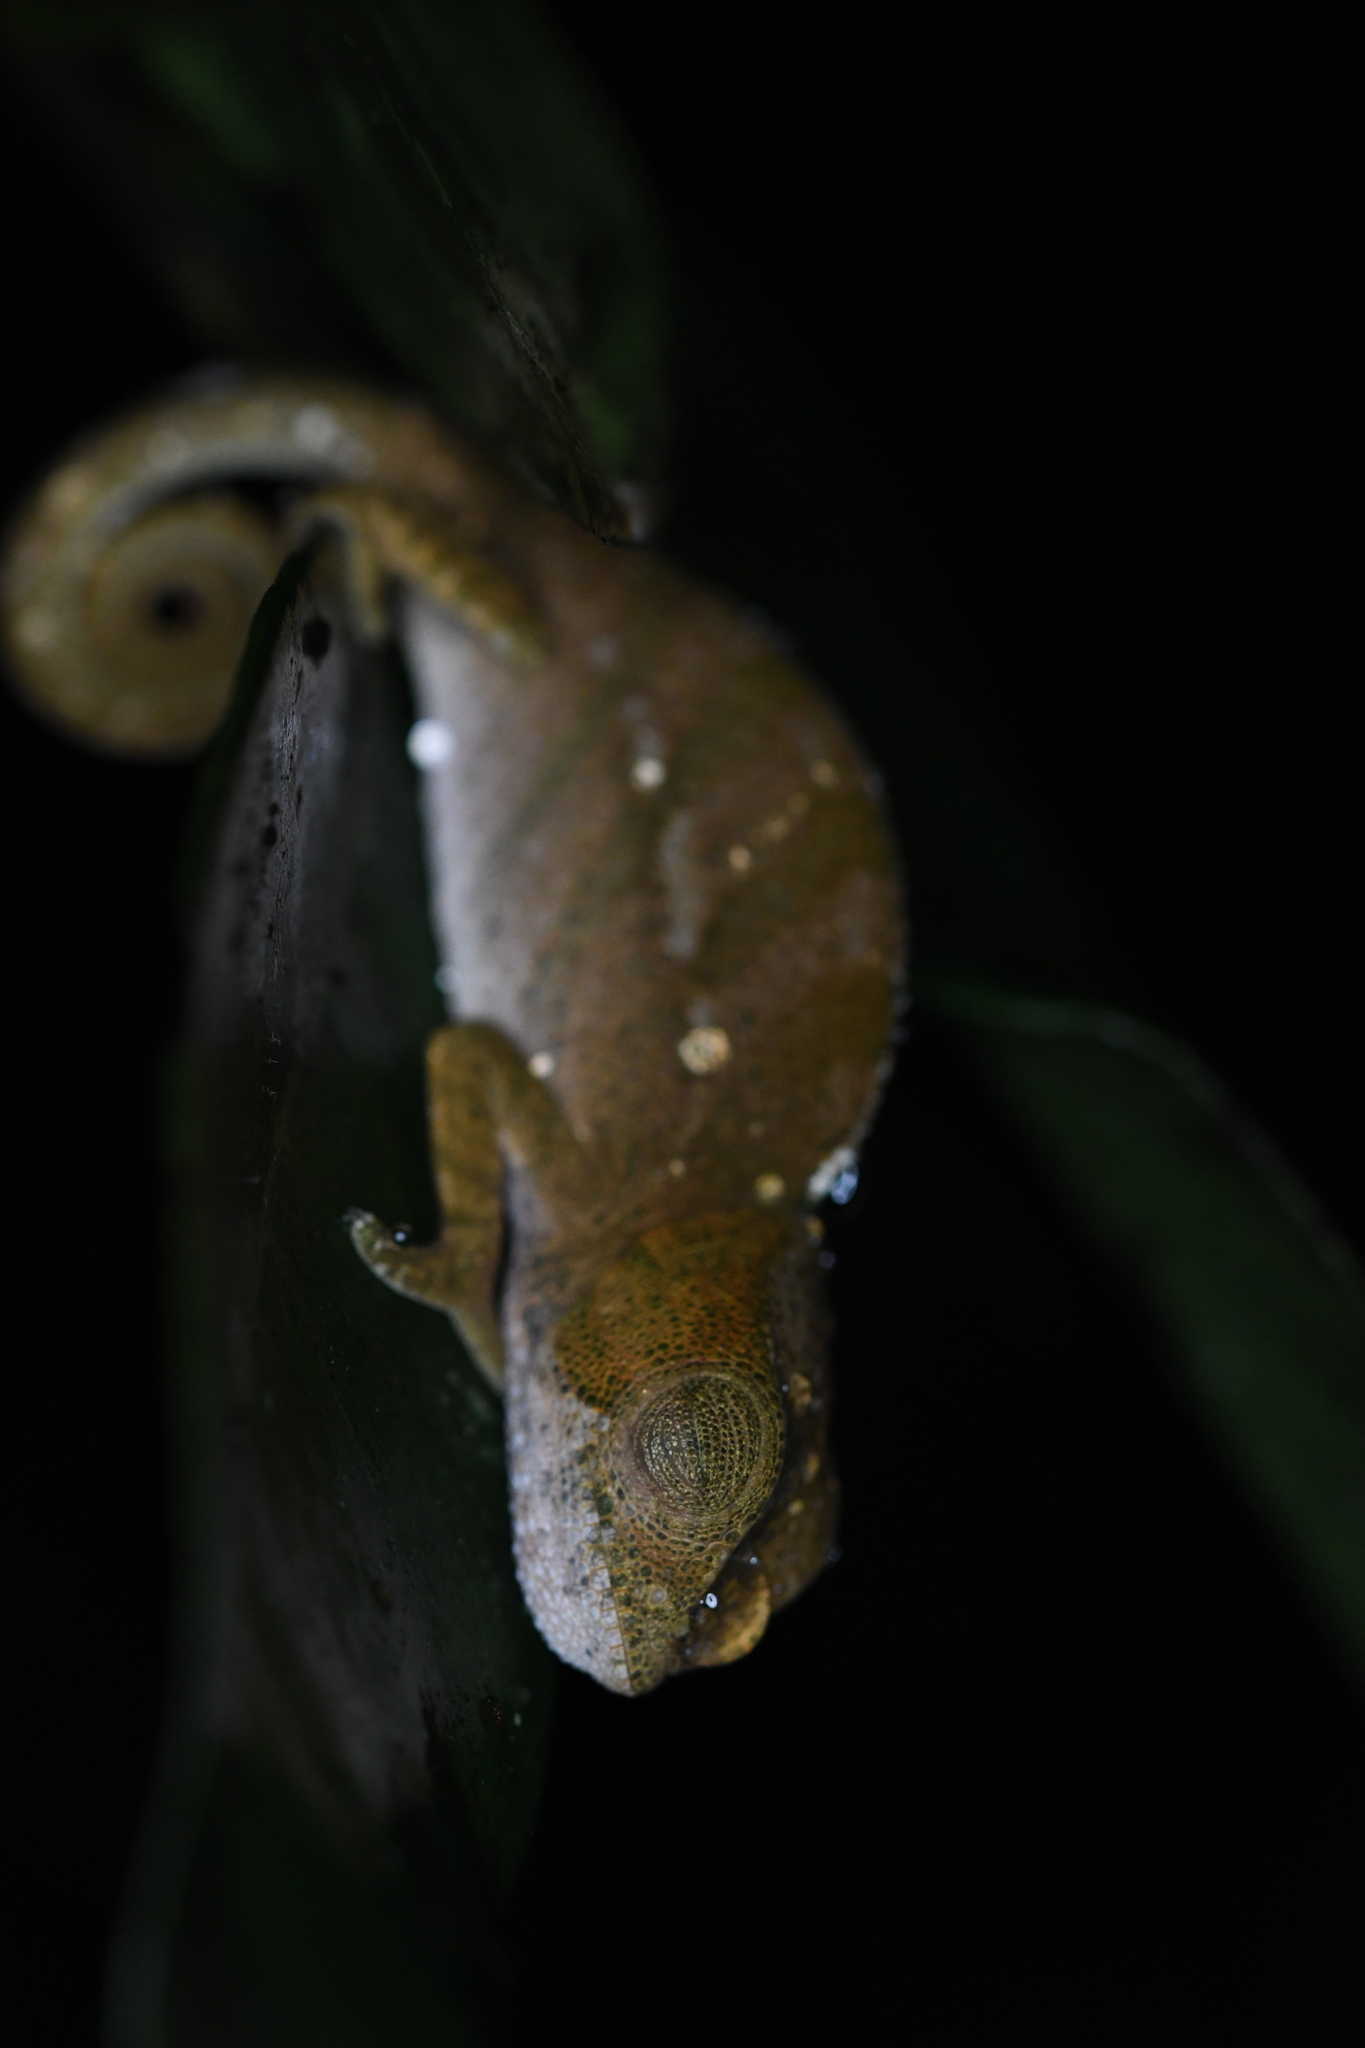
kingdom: Animalia
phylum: Chordata
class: Squamata
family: Chamaeleonidae
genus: Calumma
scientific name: Calumma oshaughnessyi
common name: O'shaughnessy's chameleon
